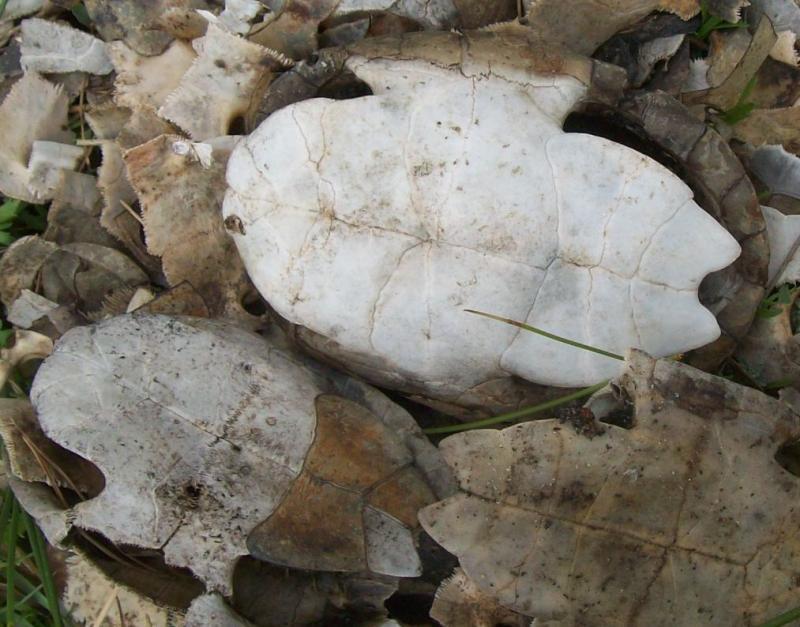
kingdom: Animalia
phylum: Chordata
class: Testudines
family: Geoemydidae
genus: Mauremys
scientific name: Mauremys leprosa
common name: Mediterranean pond turtle
